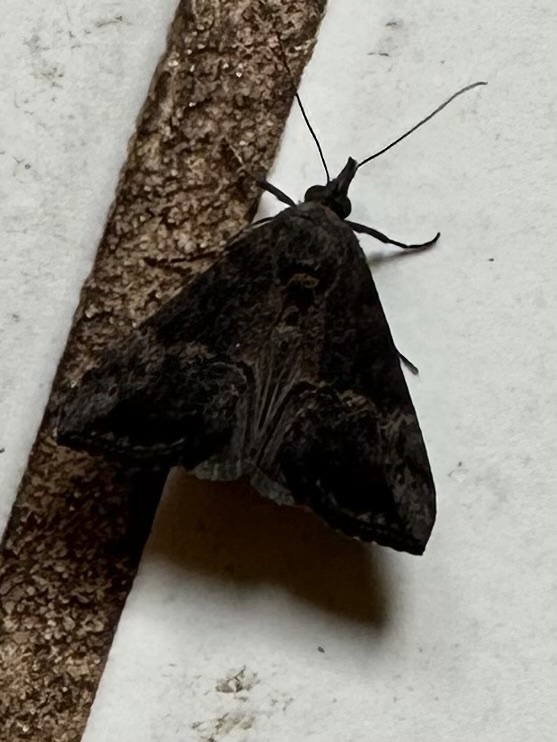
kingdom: Animalia
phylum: Arthropoda
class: Insecta
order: Lepidoptera
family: Erebidae
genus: Hypena
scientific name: Hypena scabra
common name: Green cloverworm
